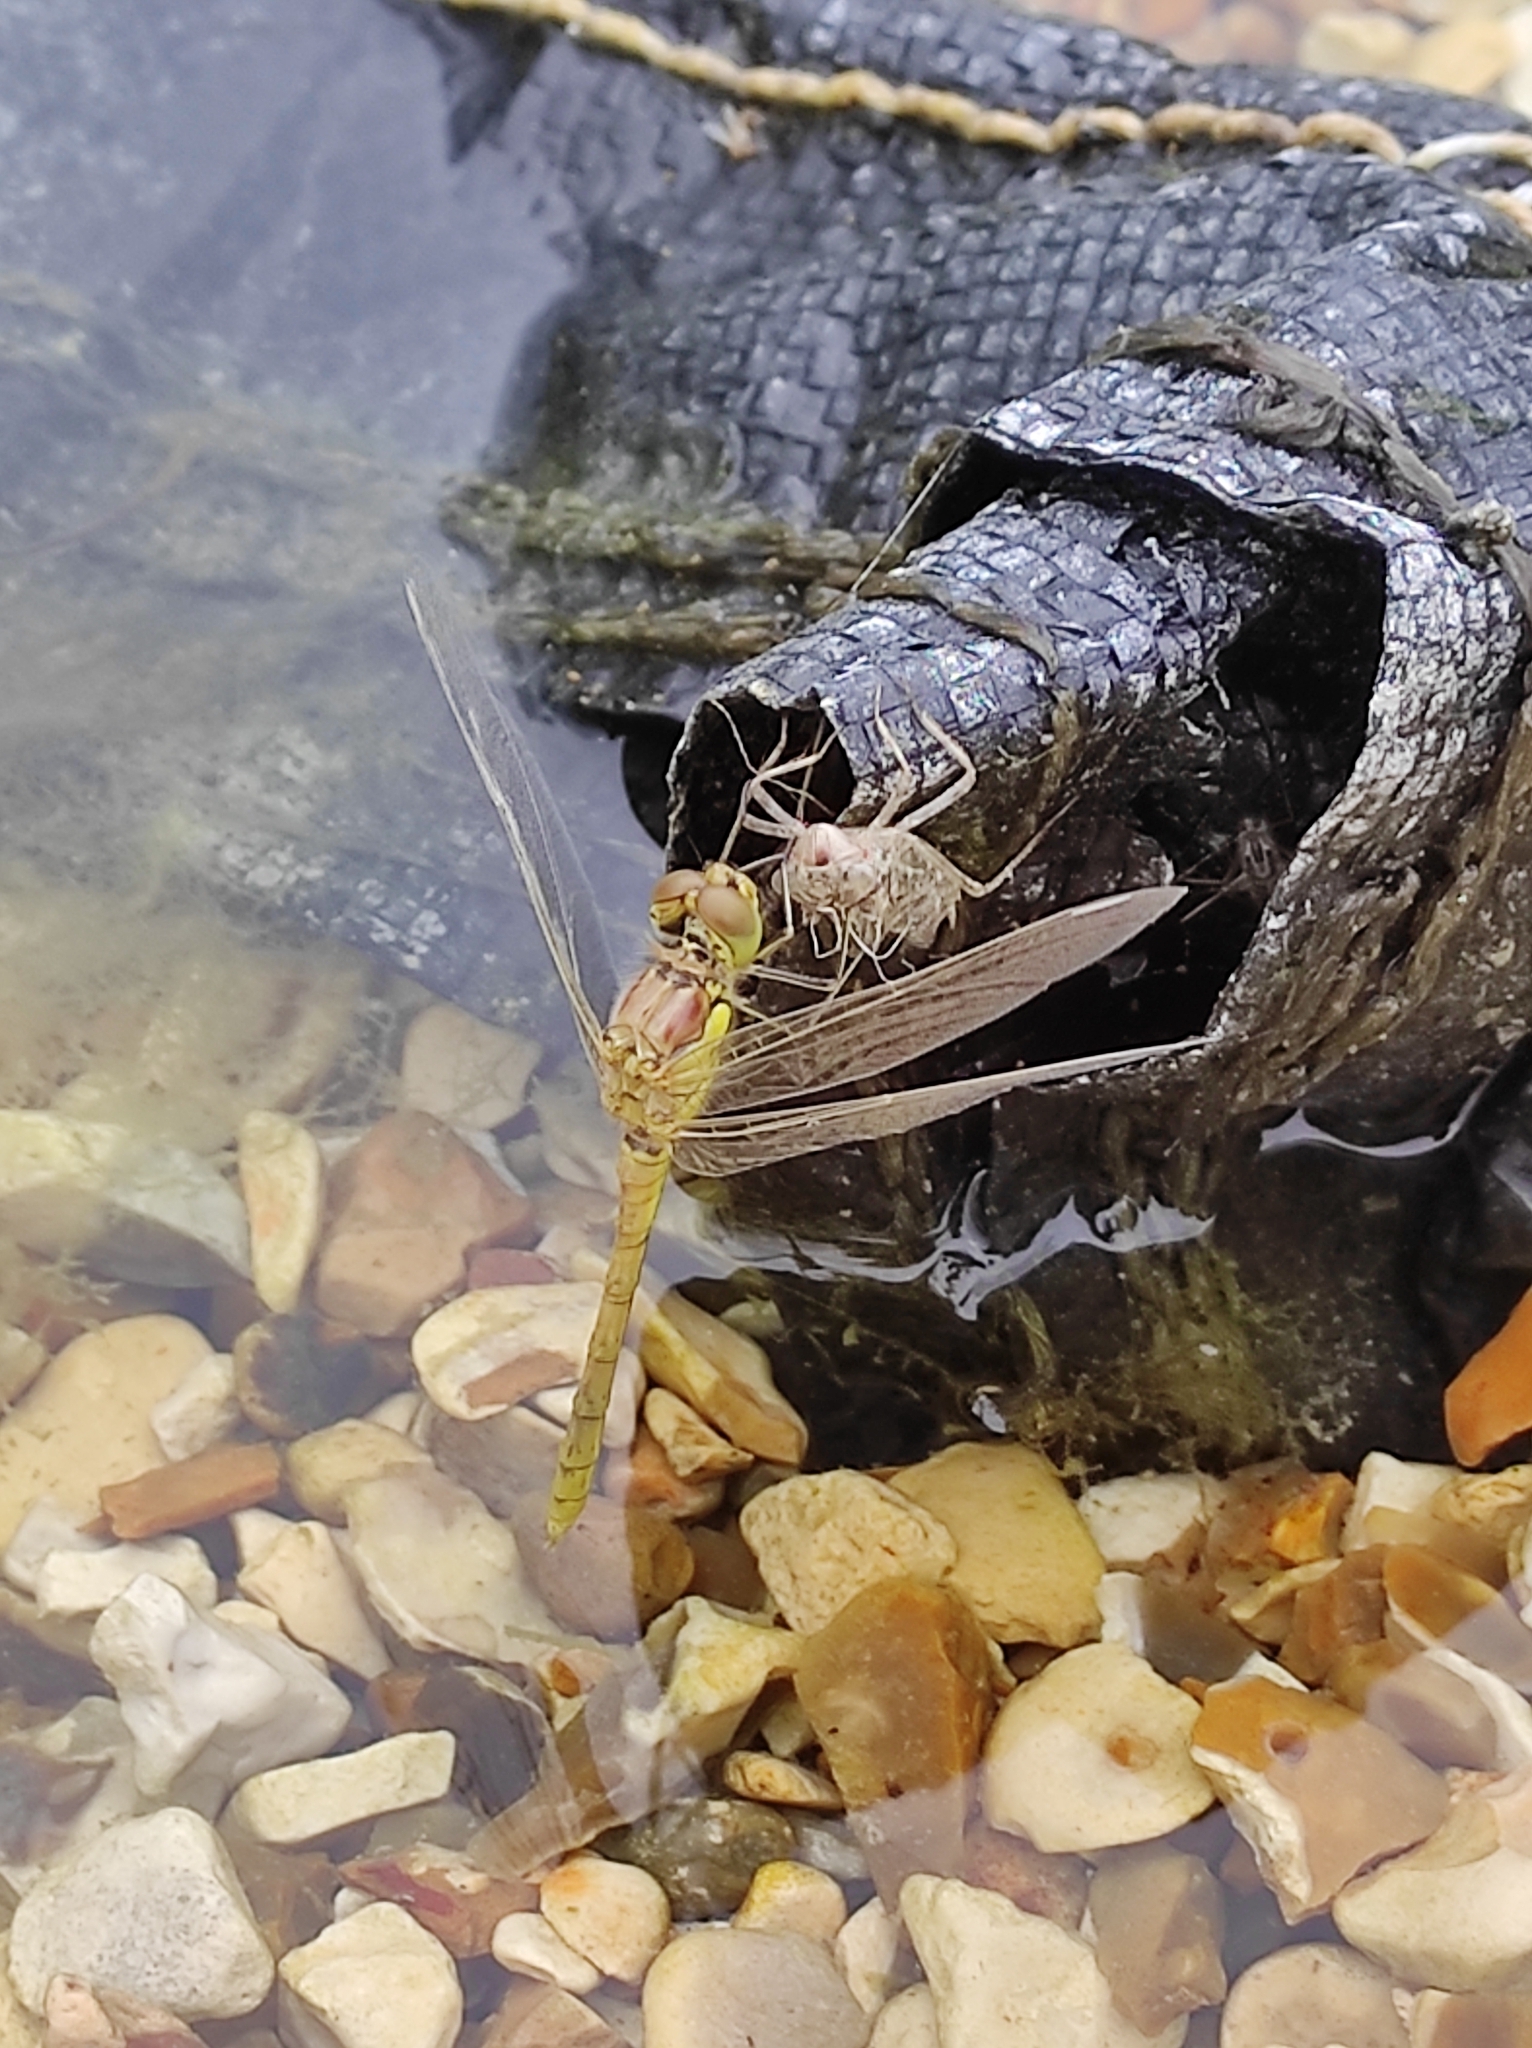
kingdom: Animalia
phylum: Arthropoda
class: Insecta
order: Odonata
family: Libellulidae
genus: Sympetrum
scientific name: Sympetrum striolatum
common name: Common darter
